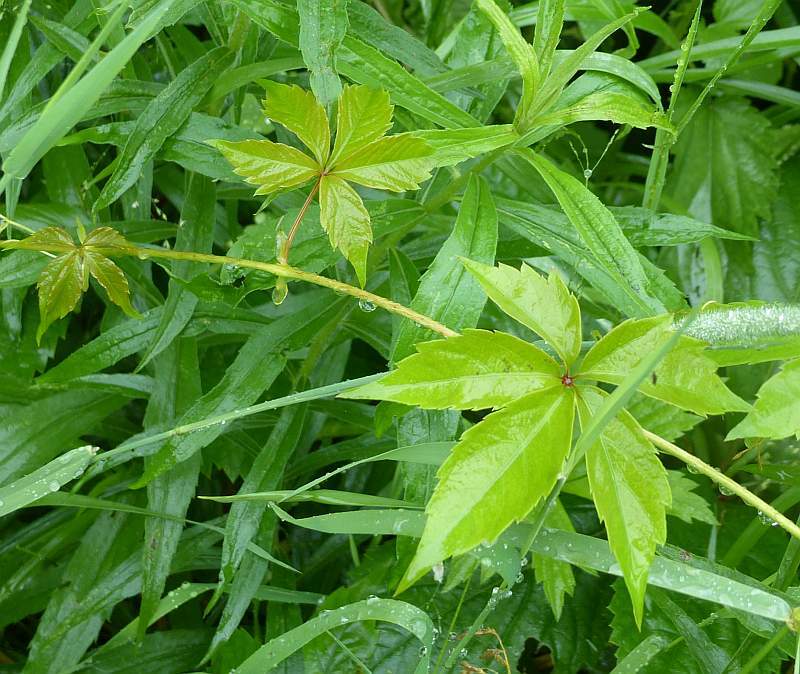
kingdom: Plantae
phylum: Tracheophyta
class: Magnoliopsida
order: Vitales
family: Vitaceae
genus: Parthenocissus
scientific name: Parthenocissus quinquefolia
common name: Virginia-creeper
